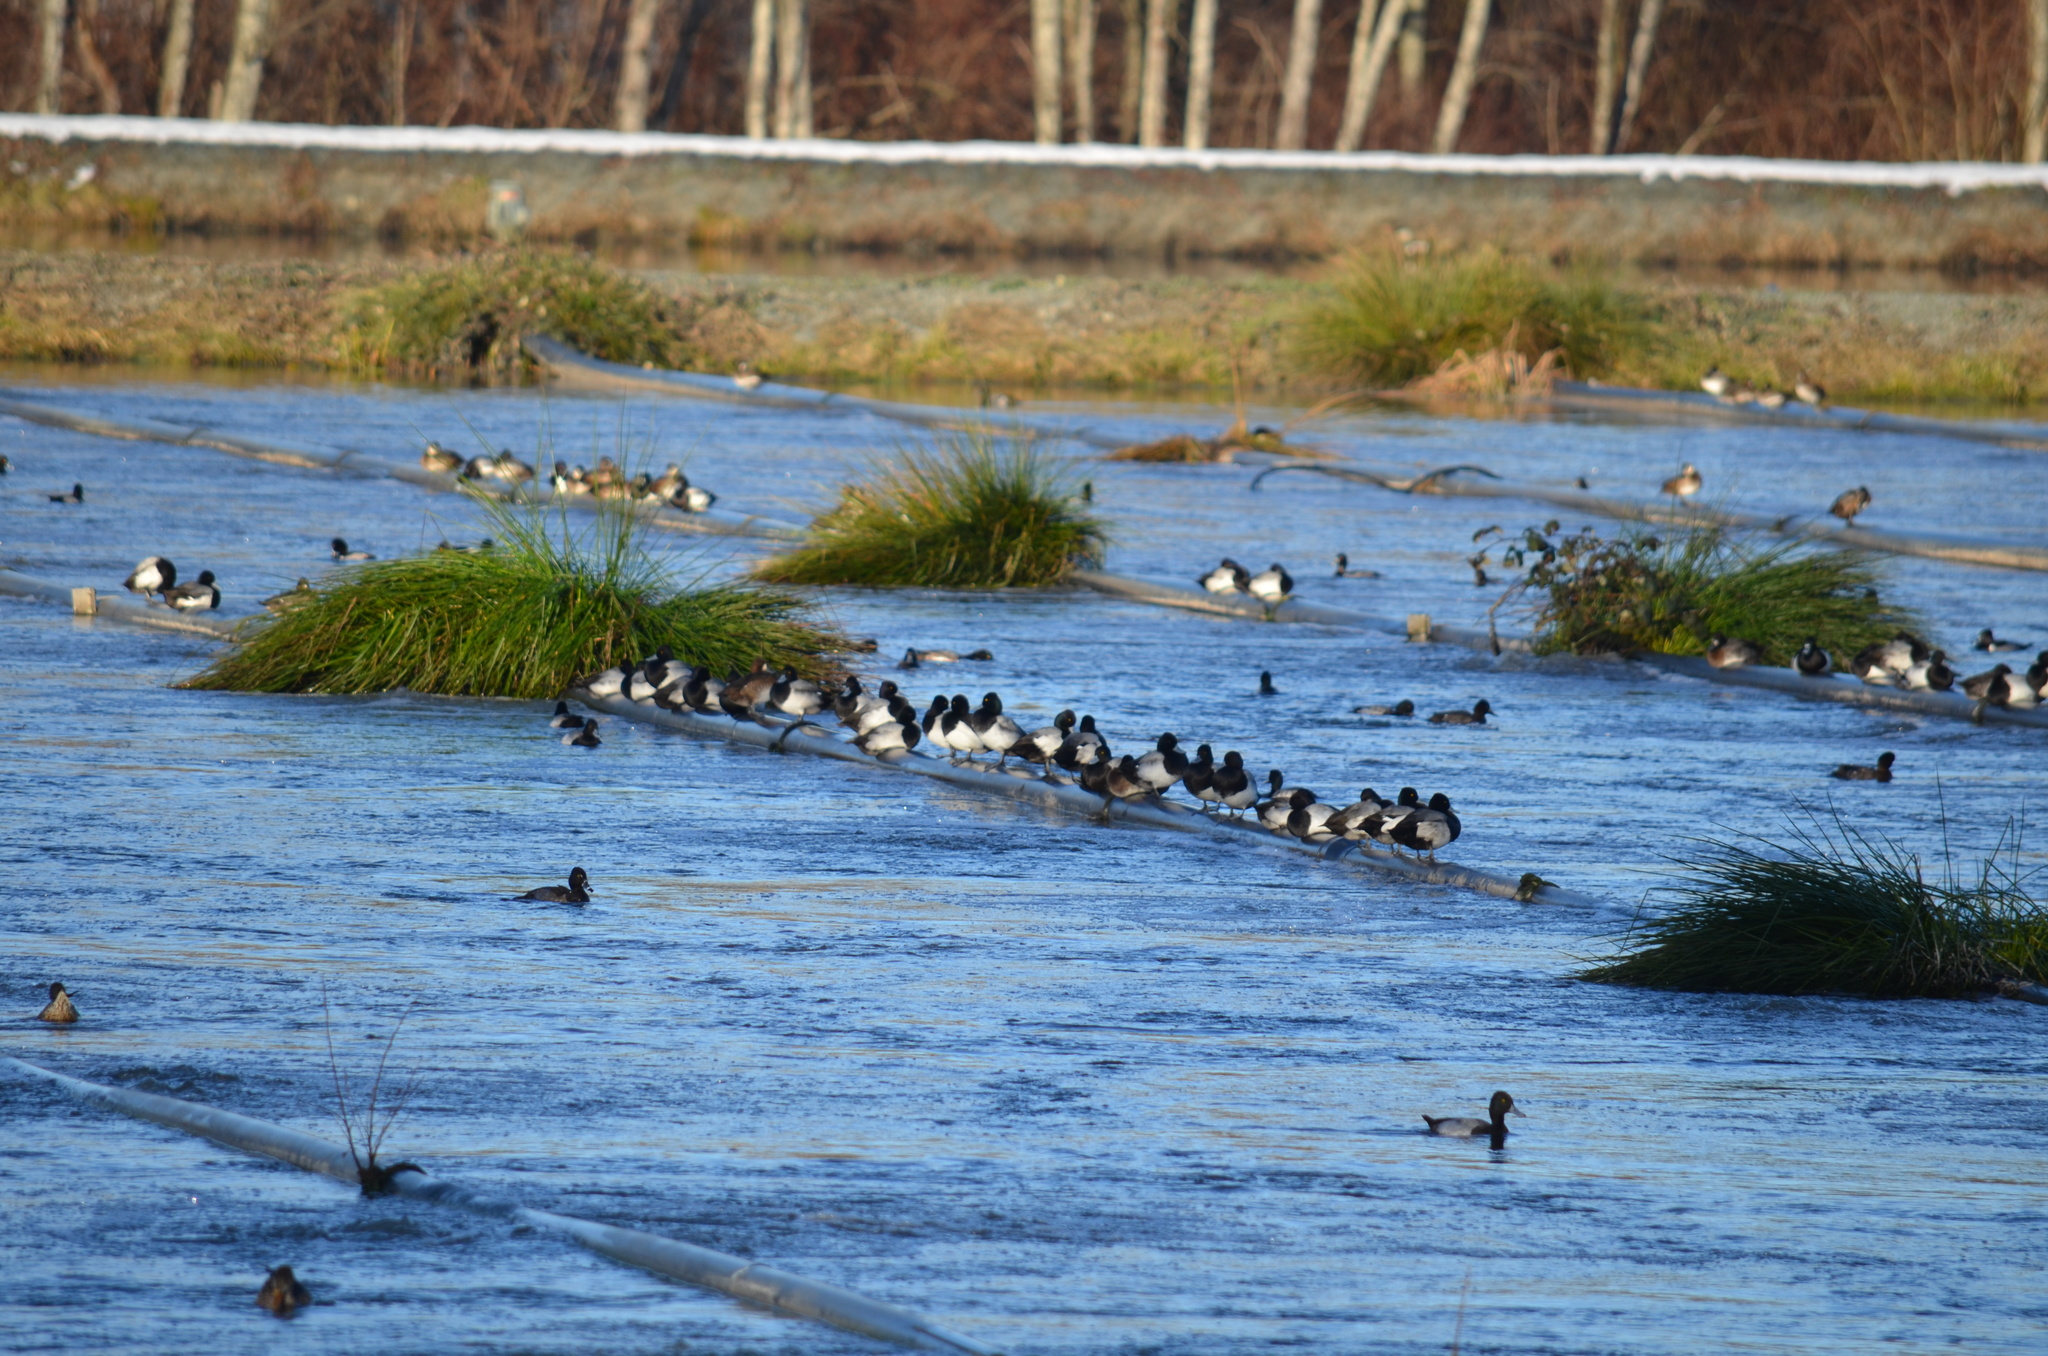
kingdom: Animalia
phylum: Chordata
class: Aves
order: Anseriformes
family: Anatidae
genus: Aythya
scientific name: Aythya affinis
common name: Lesser scaup
